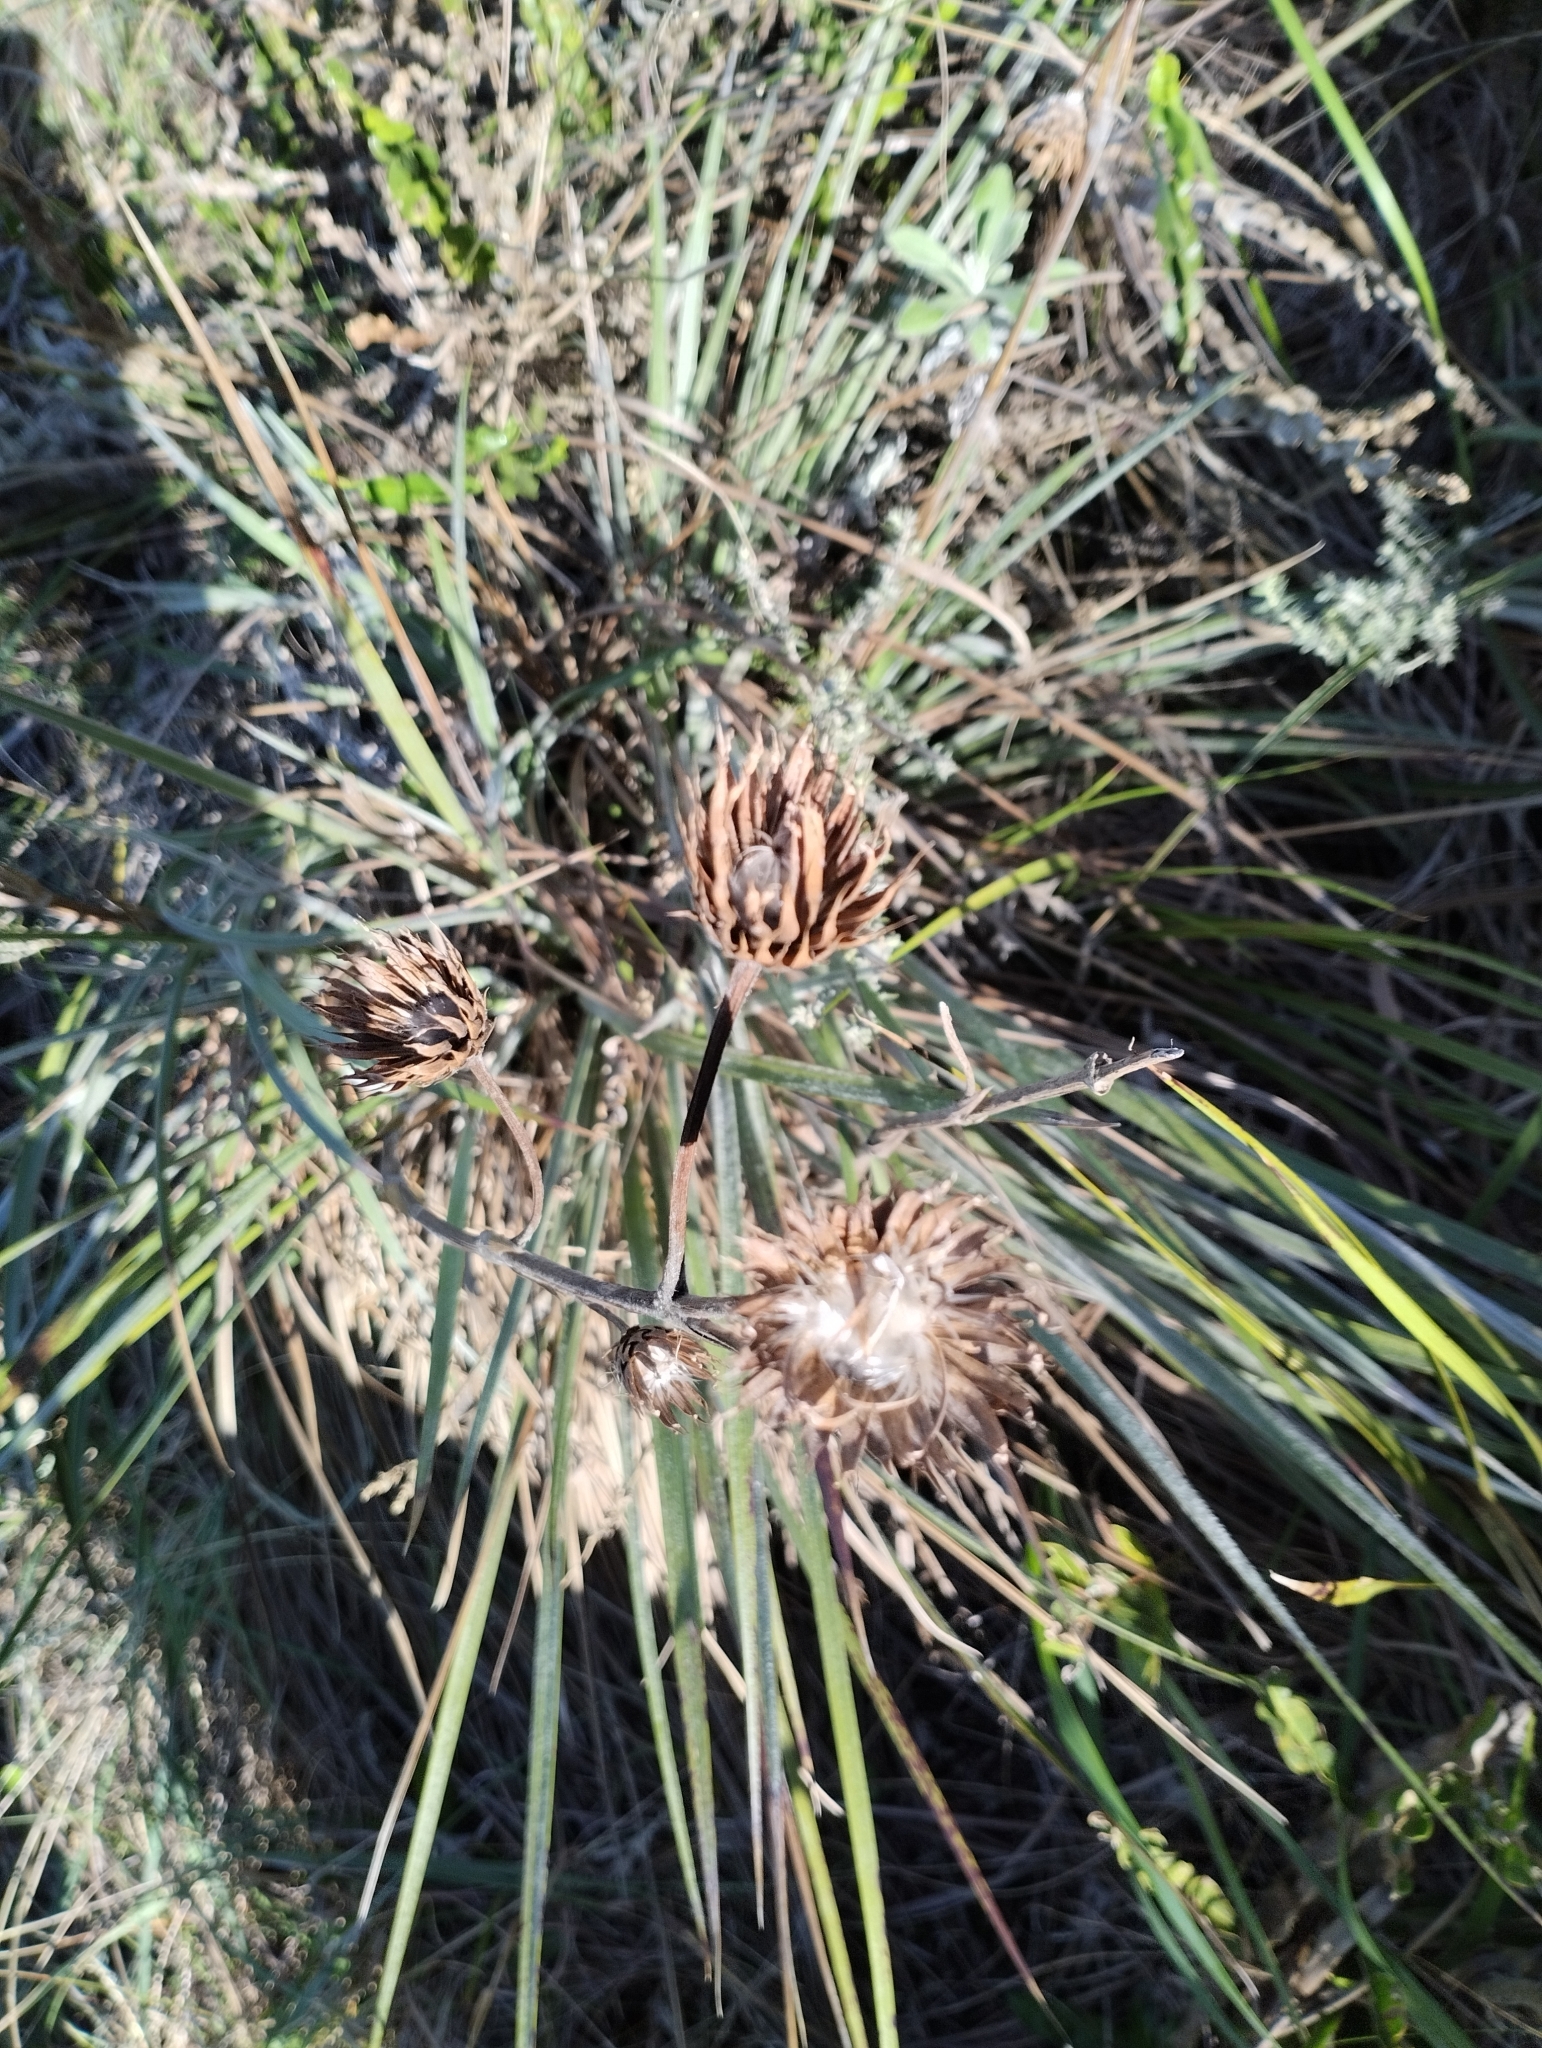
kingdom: Plantae
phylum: Tracheophyta
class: Magnoliopsida
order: Asterales
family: Asteraceae
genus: Schlechtendalia
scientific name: Schlechtendalia luzulifolia
